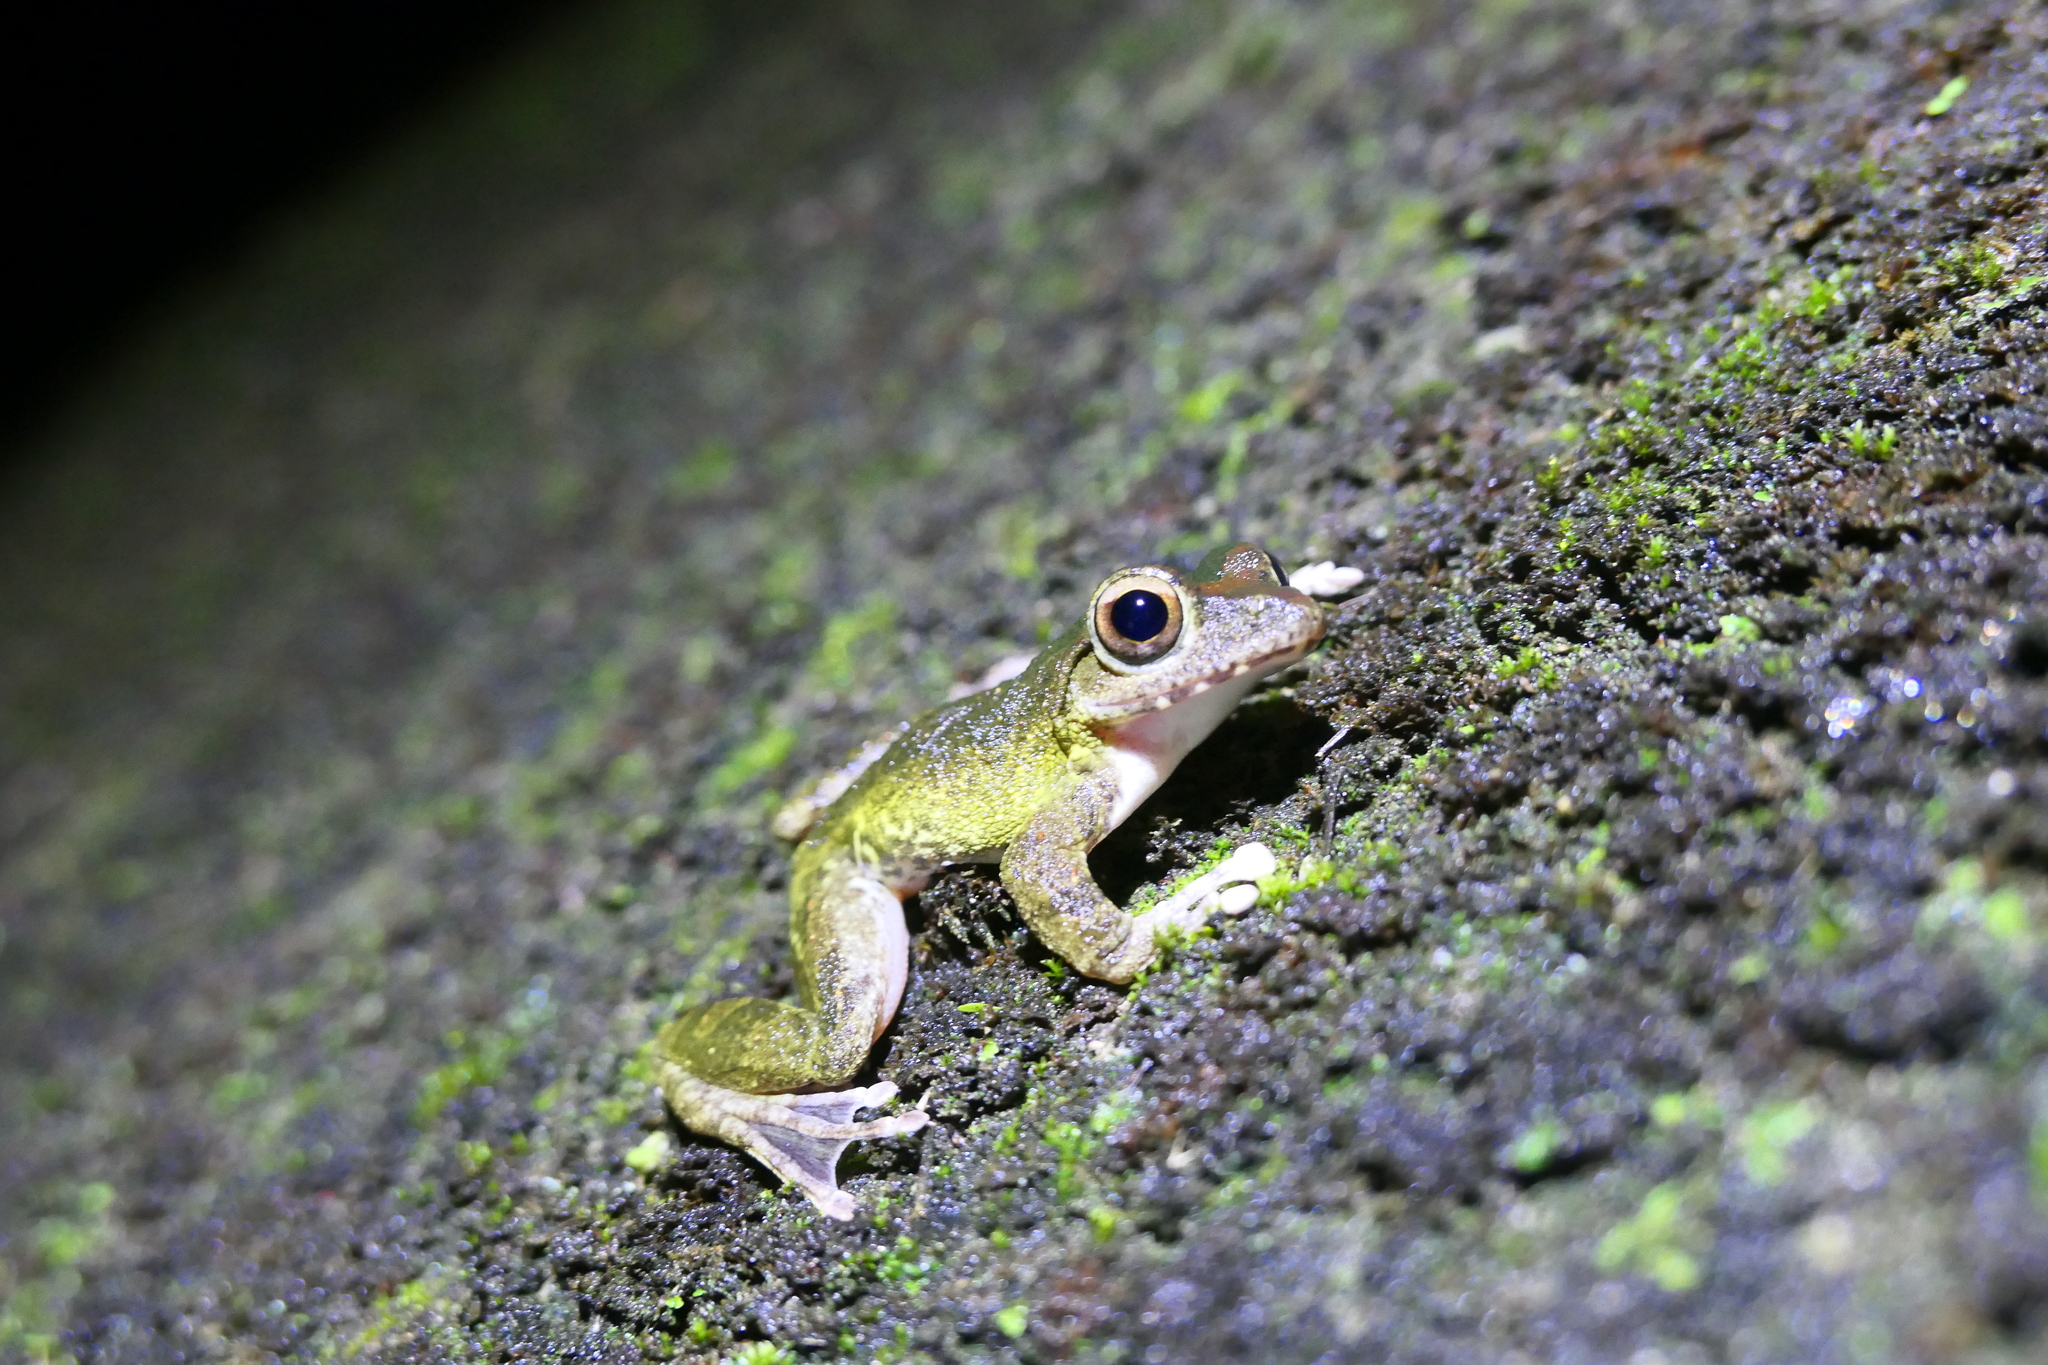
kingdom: Animalia
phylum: Chordata
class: Amphibia
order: Anura
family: Rhacophoridae
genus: Buergeria
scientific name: Buergeria robusta
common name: Brown treefrog
